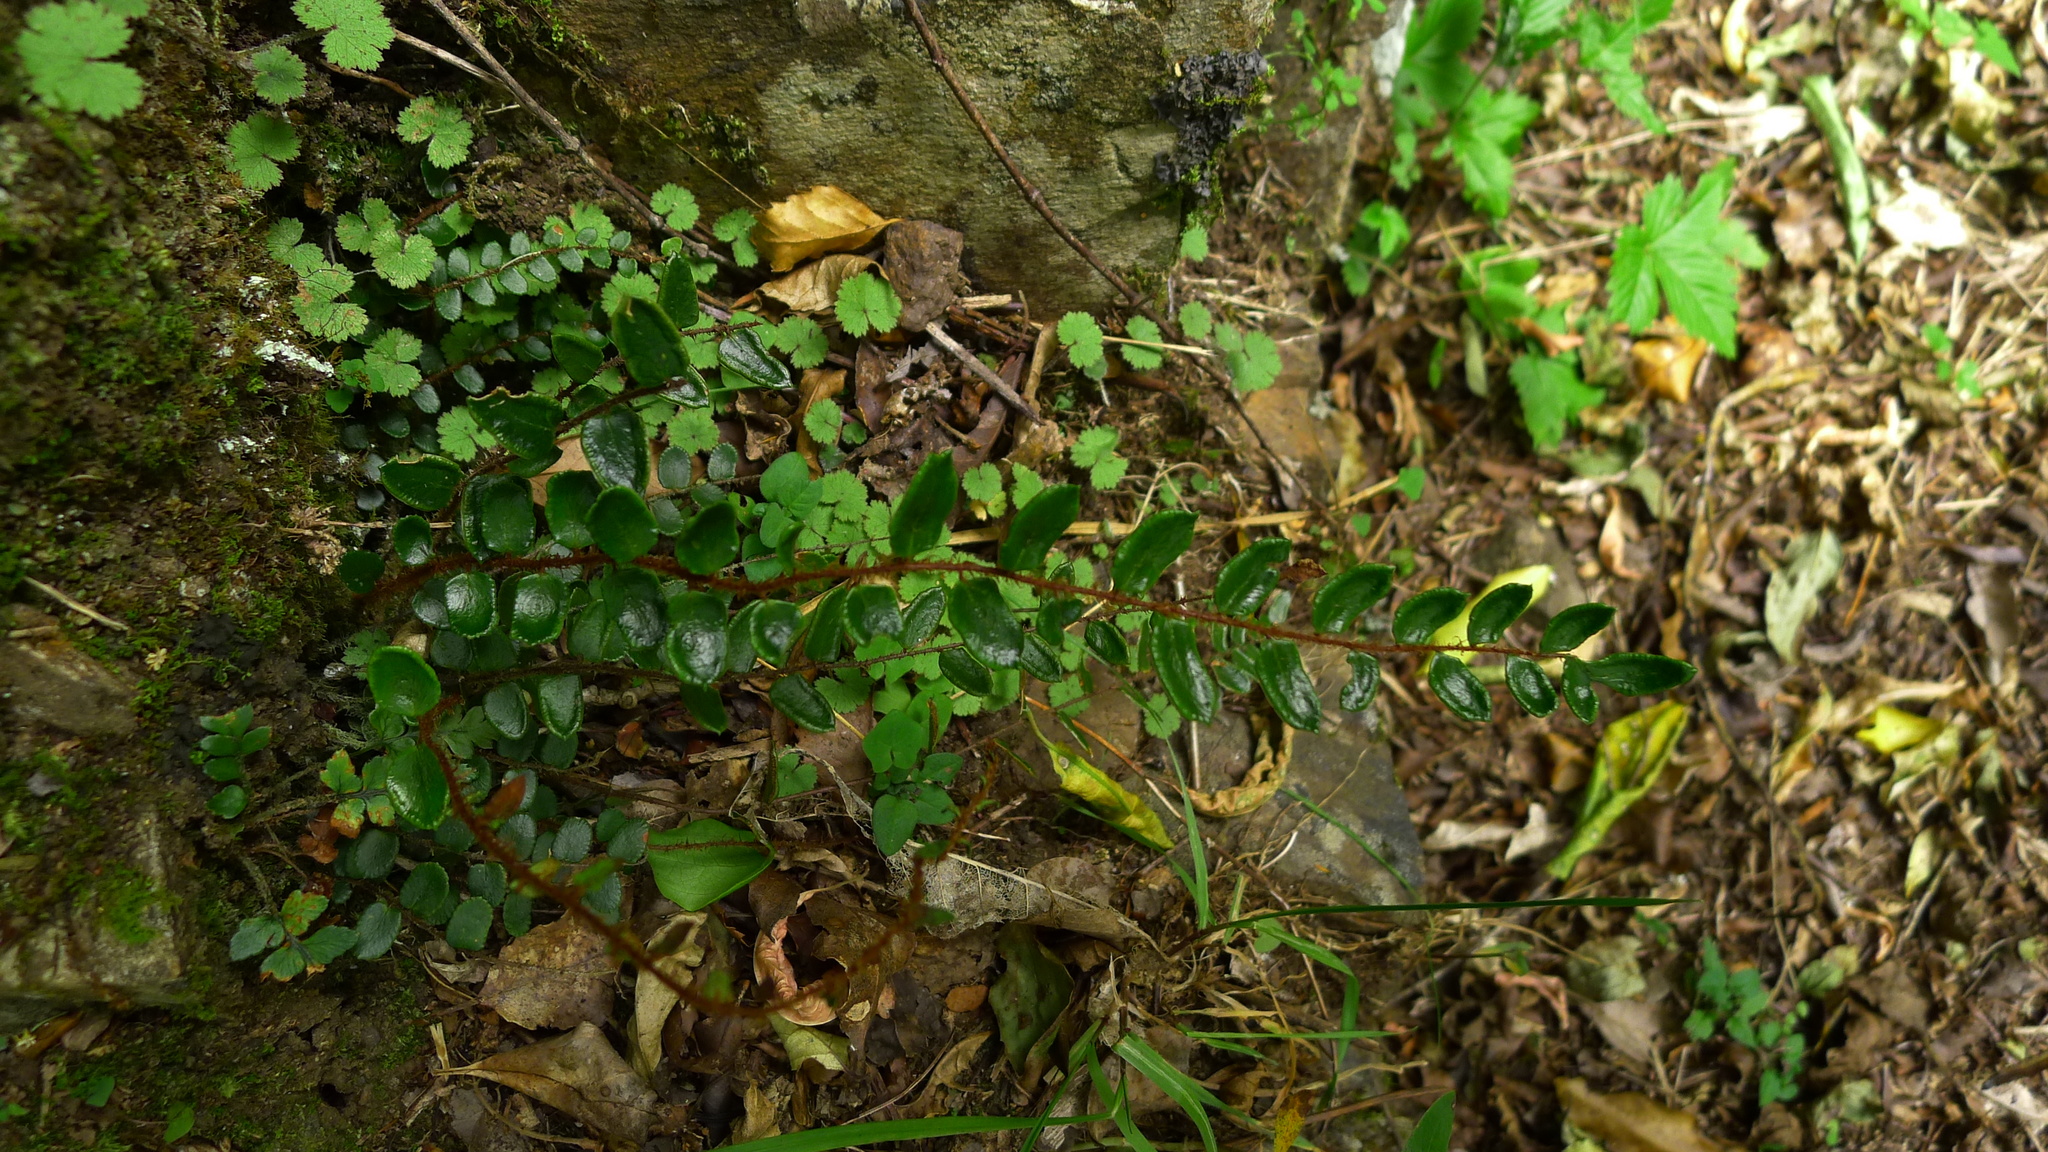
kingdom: Plantae
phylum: Tracheophyta
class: Polypodiopsida
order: Polypodiales
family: Pteridaceae
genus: Pellaea
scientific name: Pellaea rotundifolia
